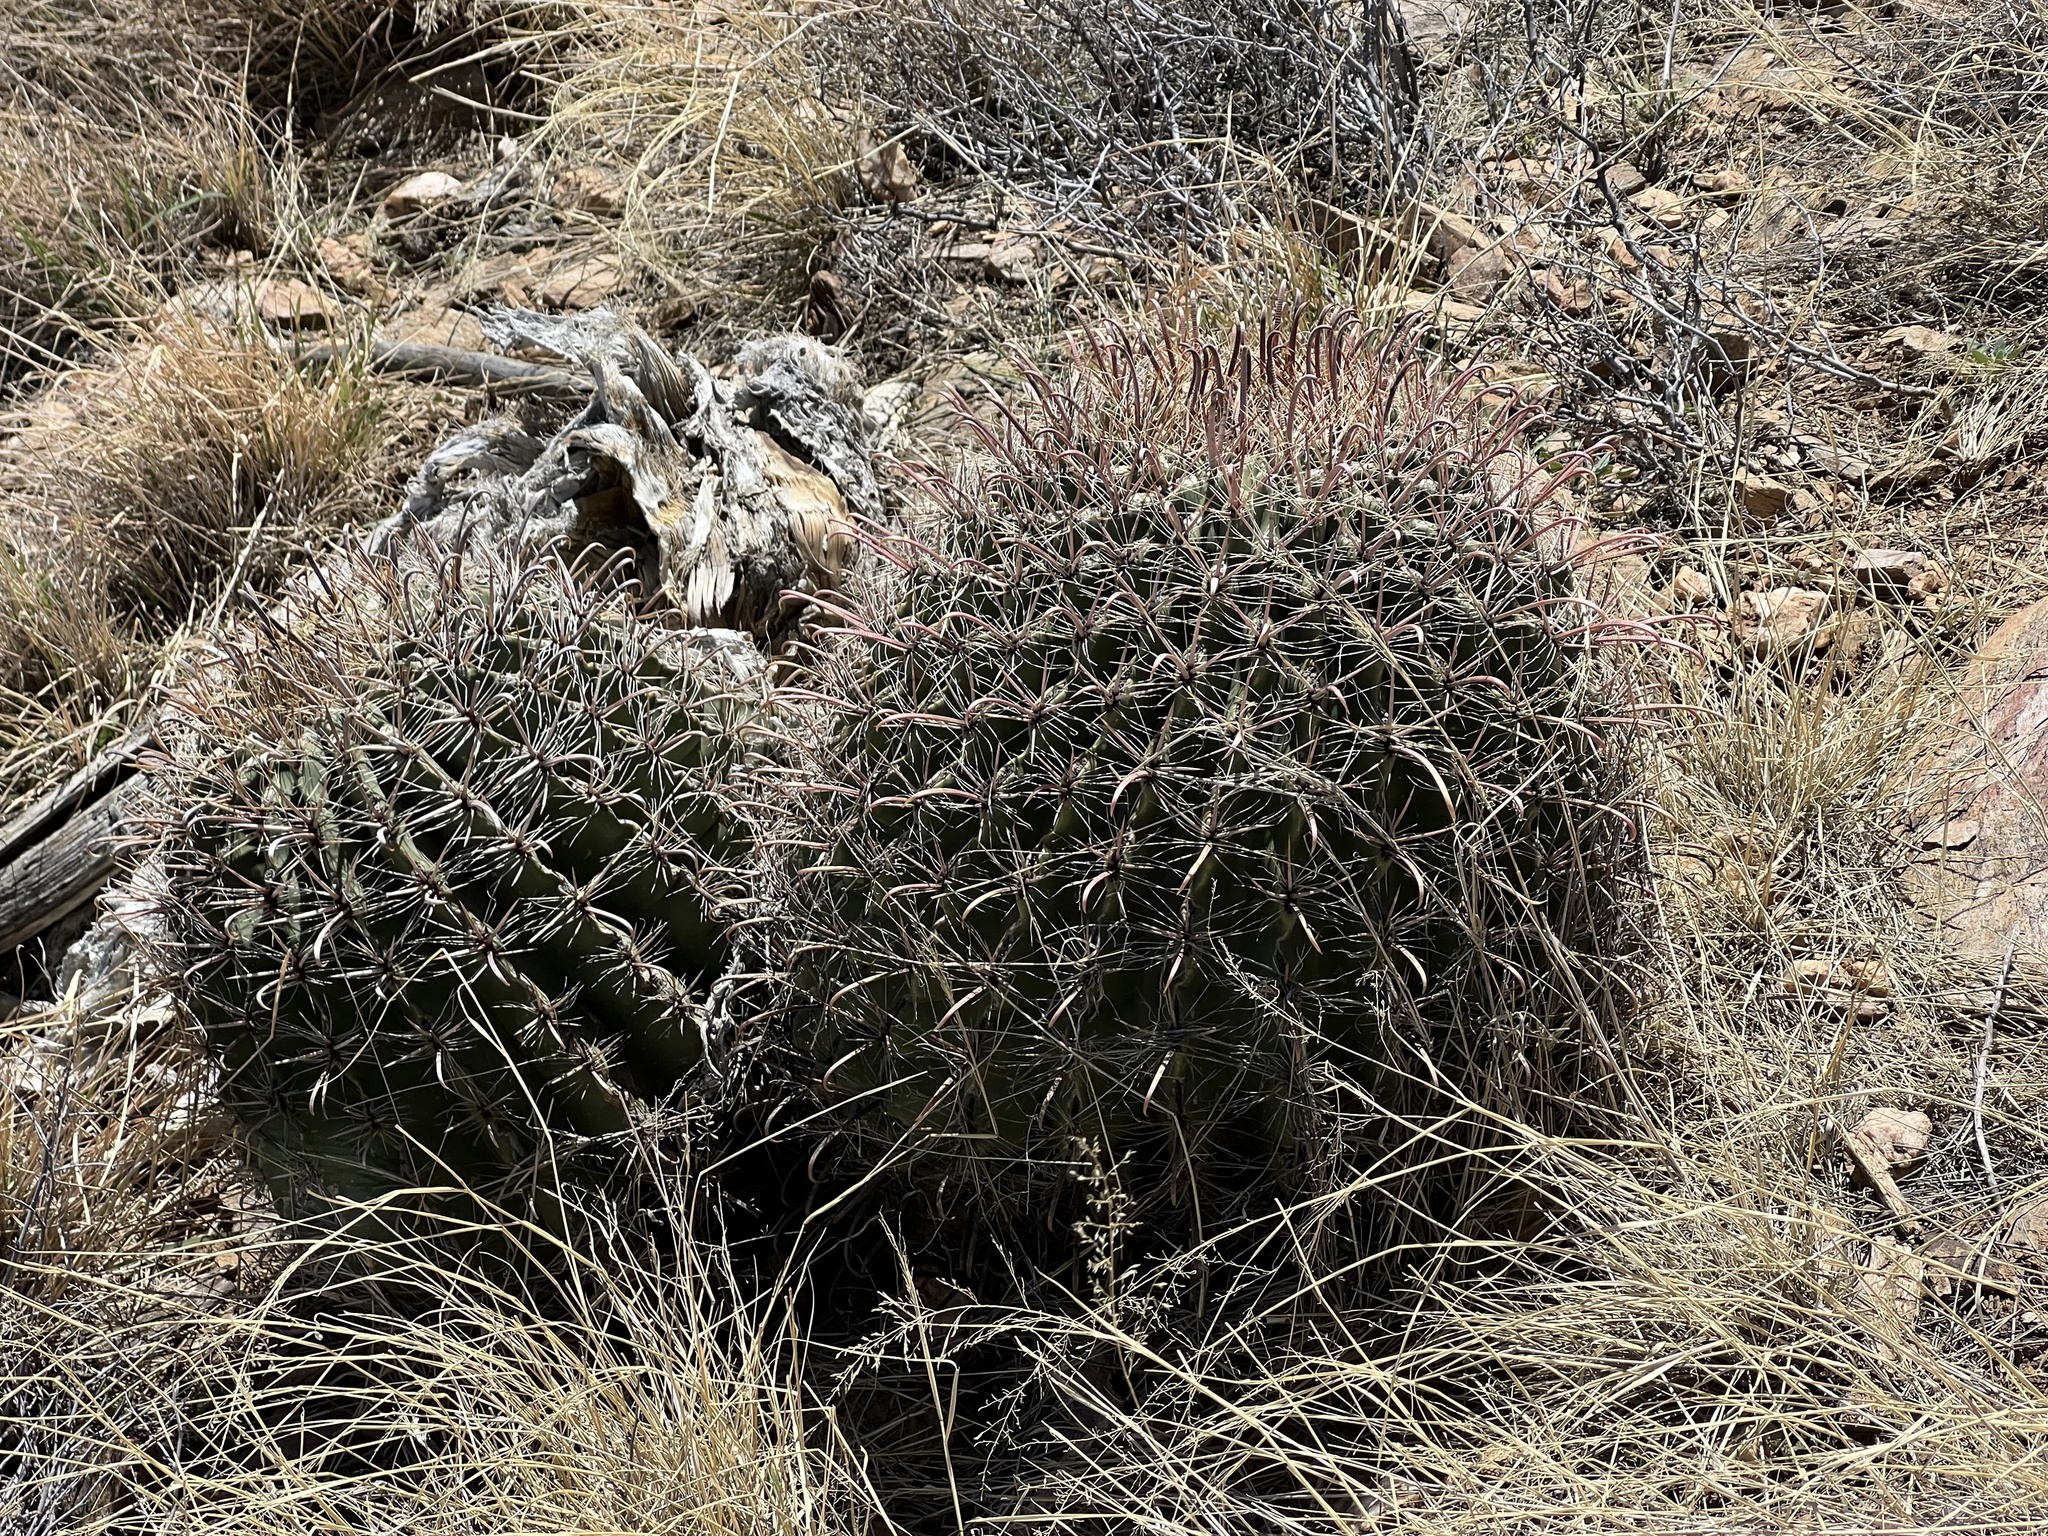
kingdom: Plantae
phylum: Tracheophyta
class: Magnoliopsida
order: Caryophyllales
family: Cactaceae
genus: Ferocactus
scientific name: Ferocactus wislizeni
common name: Candy barrel cactus
